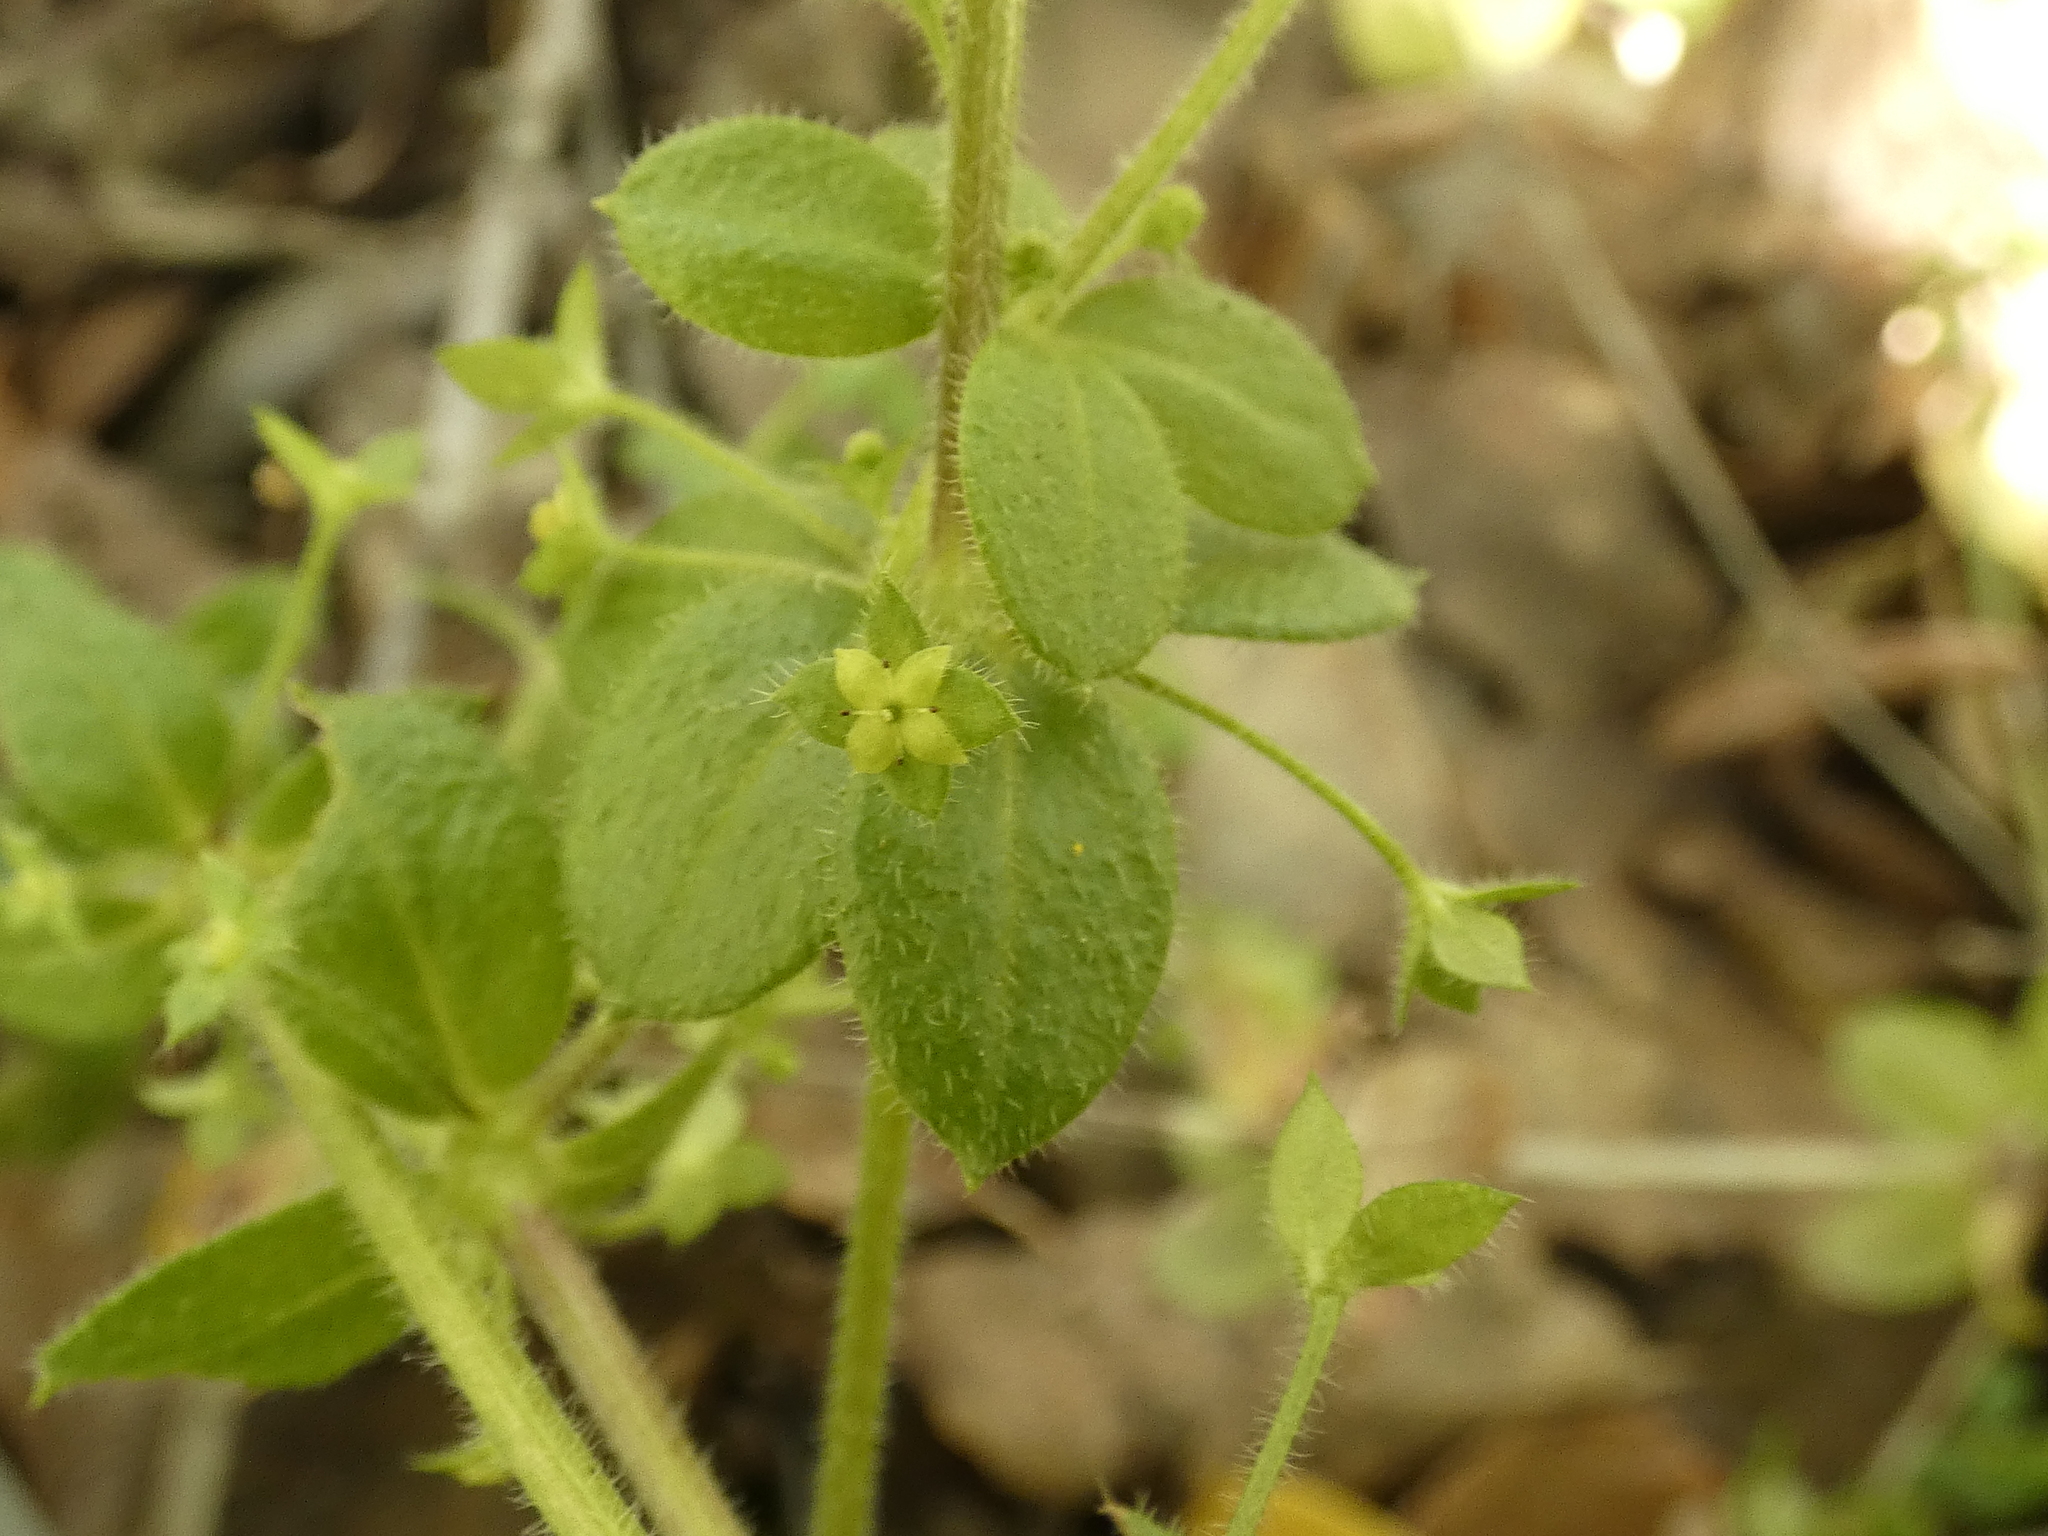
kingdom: Plantae
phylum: Tracheophyta
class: Magnoliopsida
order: Gentianales
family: Rubiaceae
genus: Galium
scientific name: Galium hypocarpium
